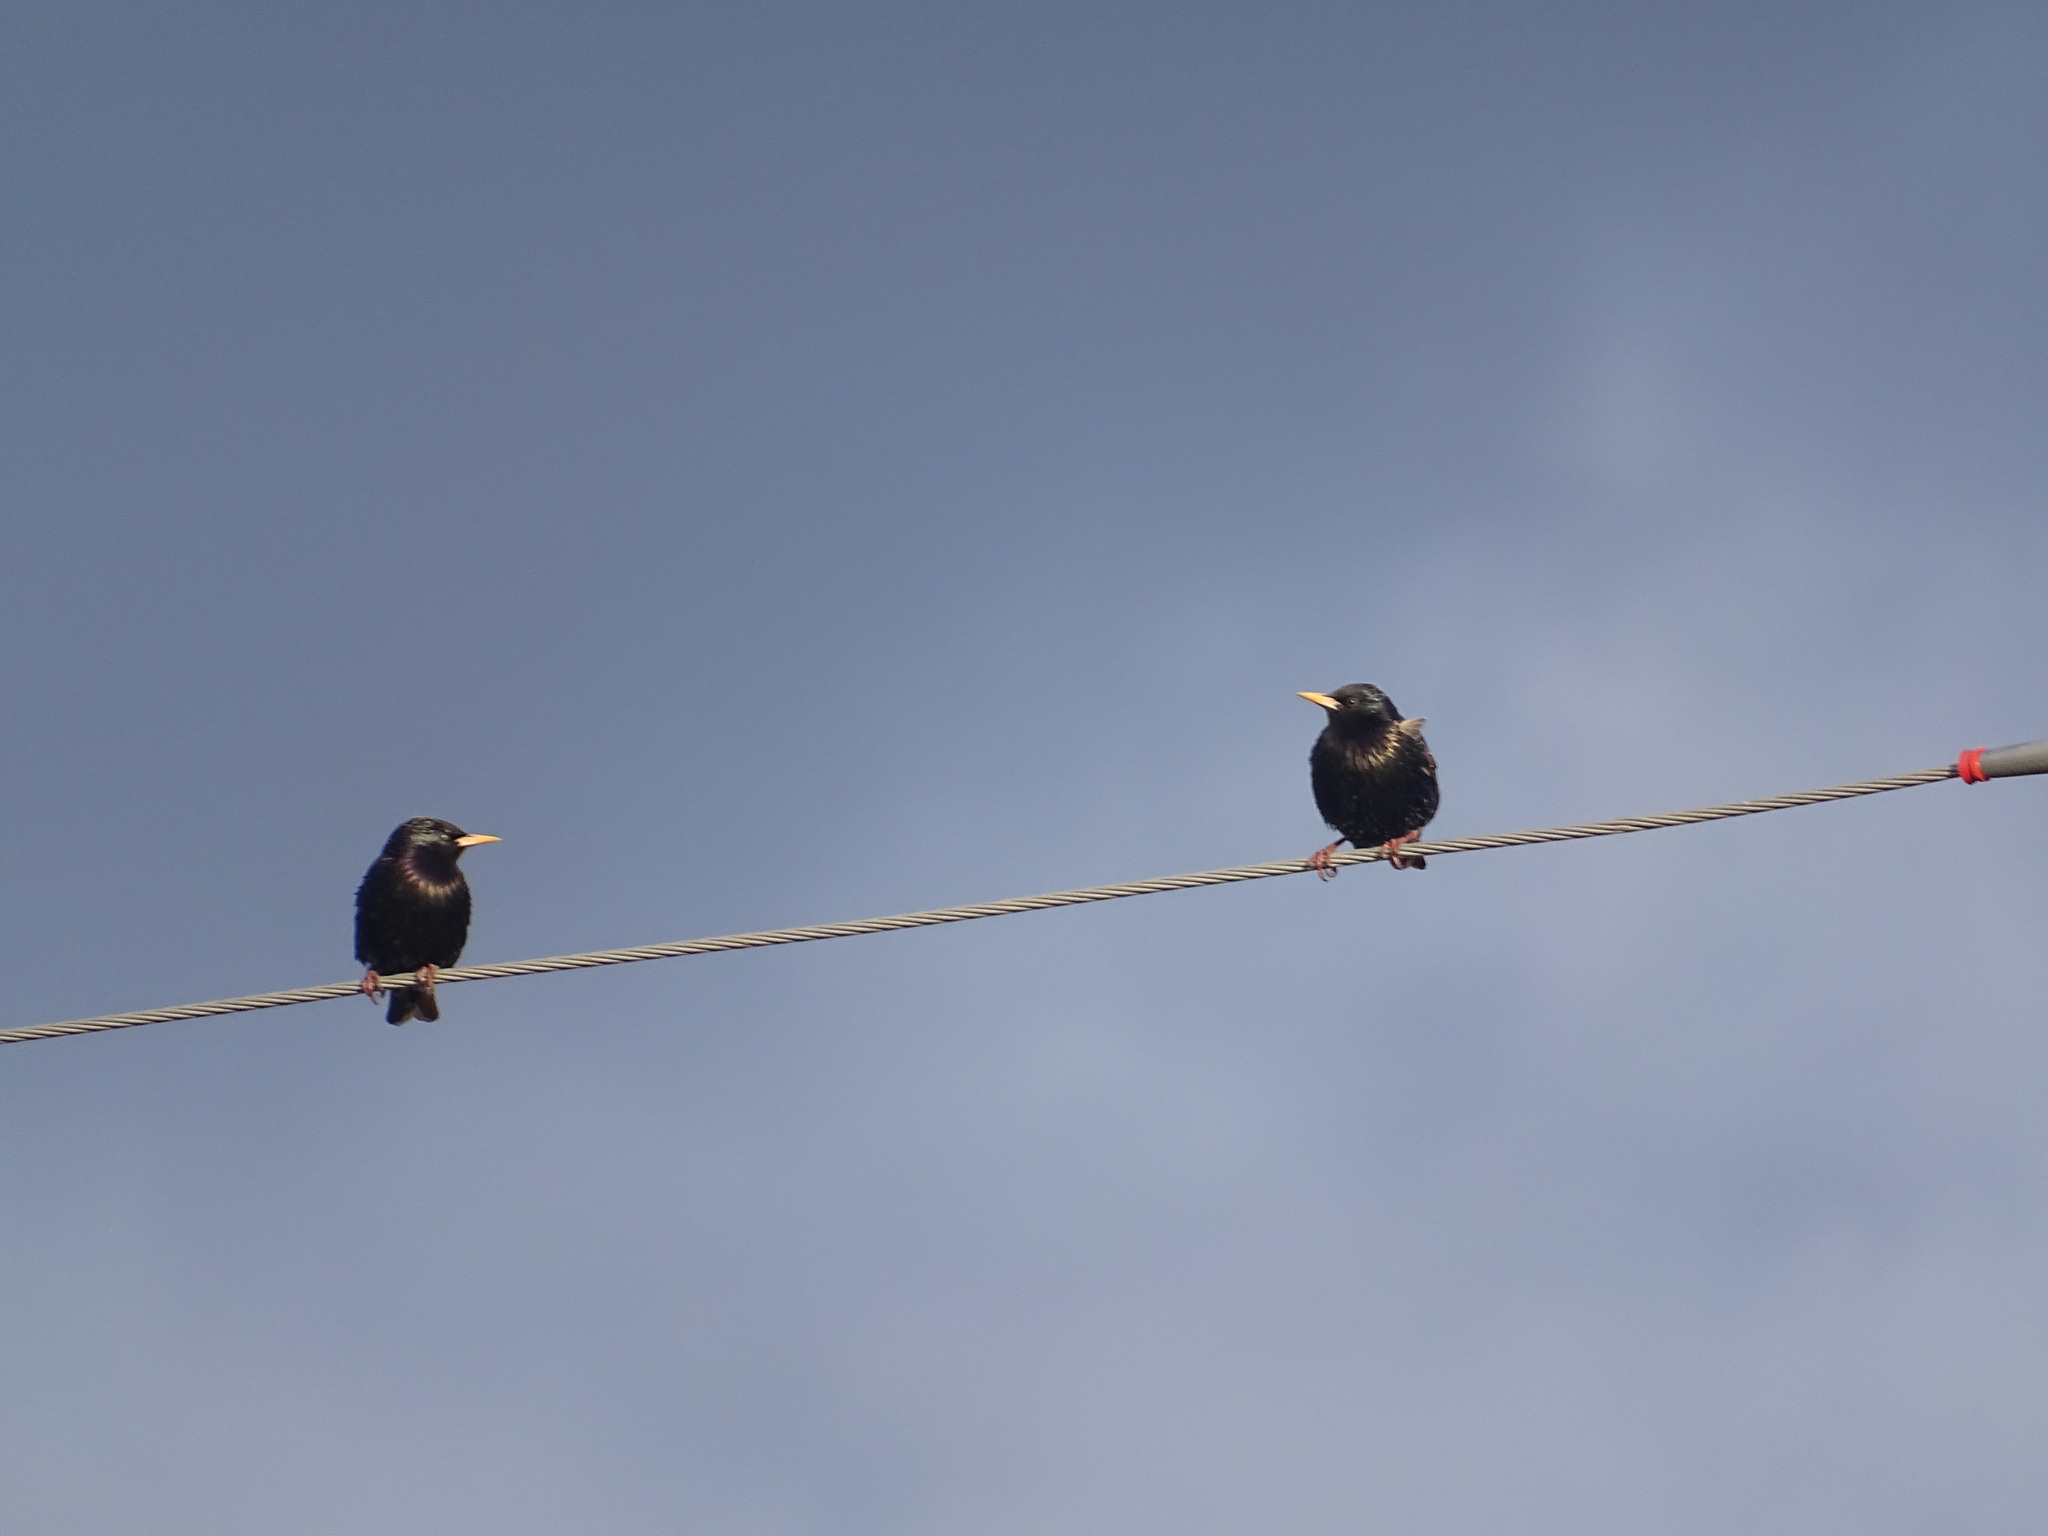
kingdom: Animalia
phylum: Chordata
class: Aves
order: Passeriformes
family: Sturnidae
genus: Sturnus
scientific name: Sturnus vulgaris
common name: Common starling
